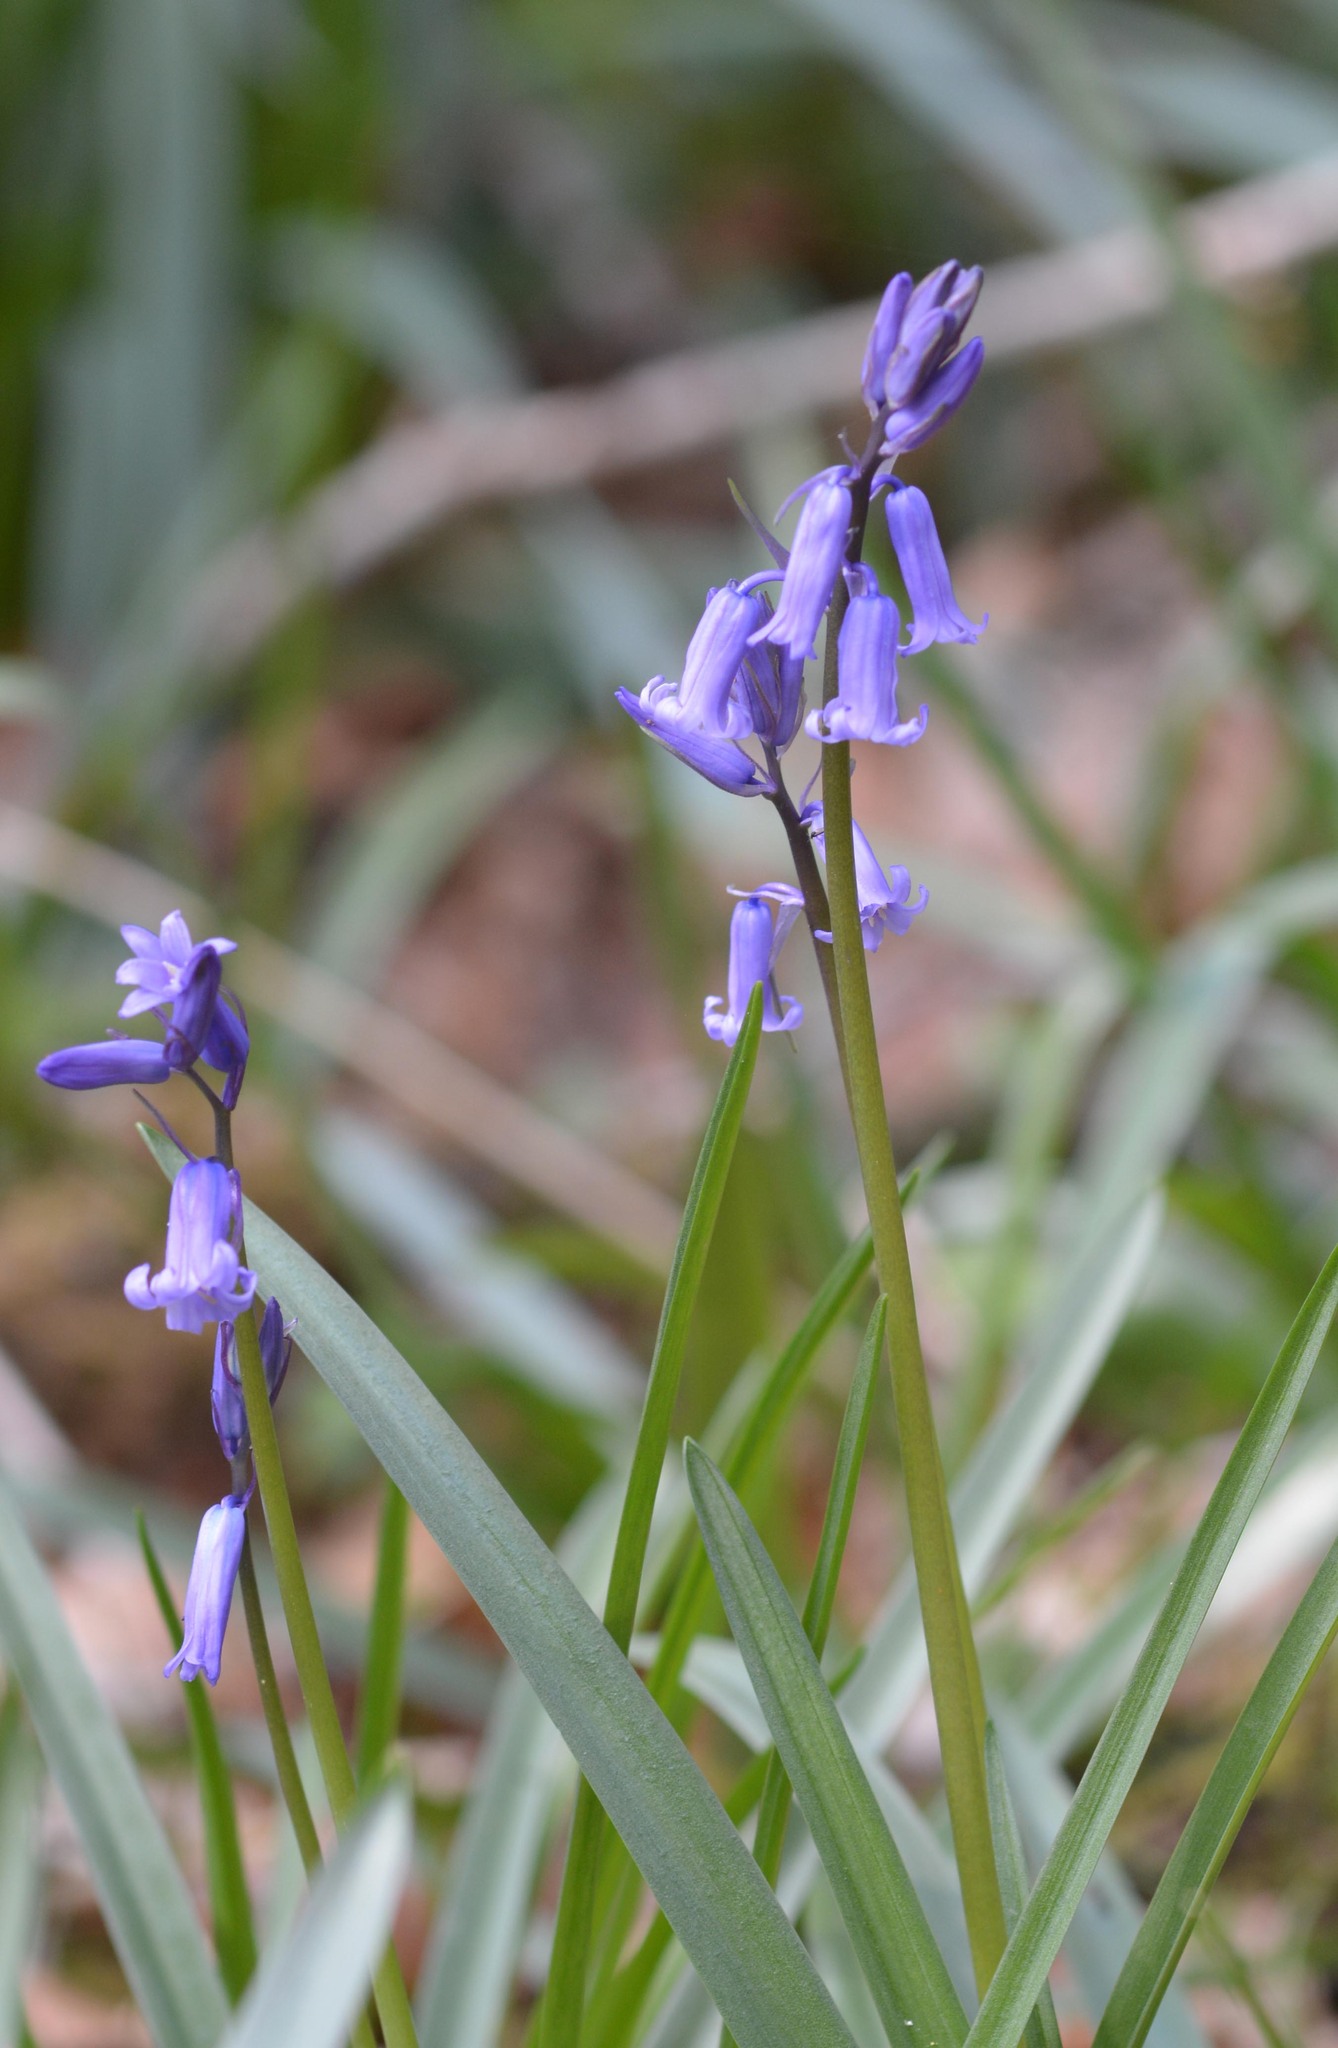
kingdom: Plantae
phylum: Tracheophyta
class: Liliopsida
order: Asparagales
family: Asparagaceae
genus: Hyacinthoides
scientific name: Hyacinthoides non-scripta
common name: Bluebell
